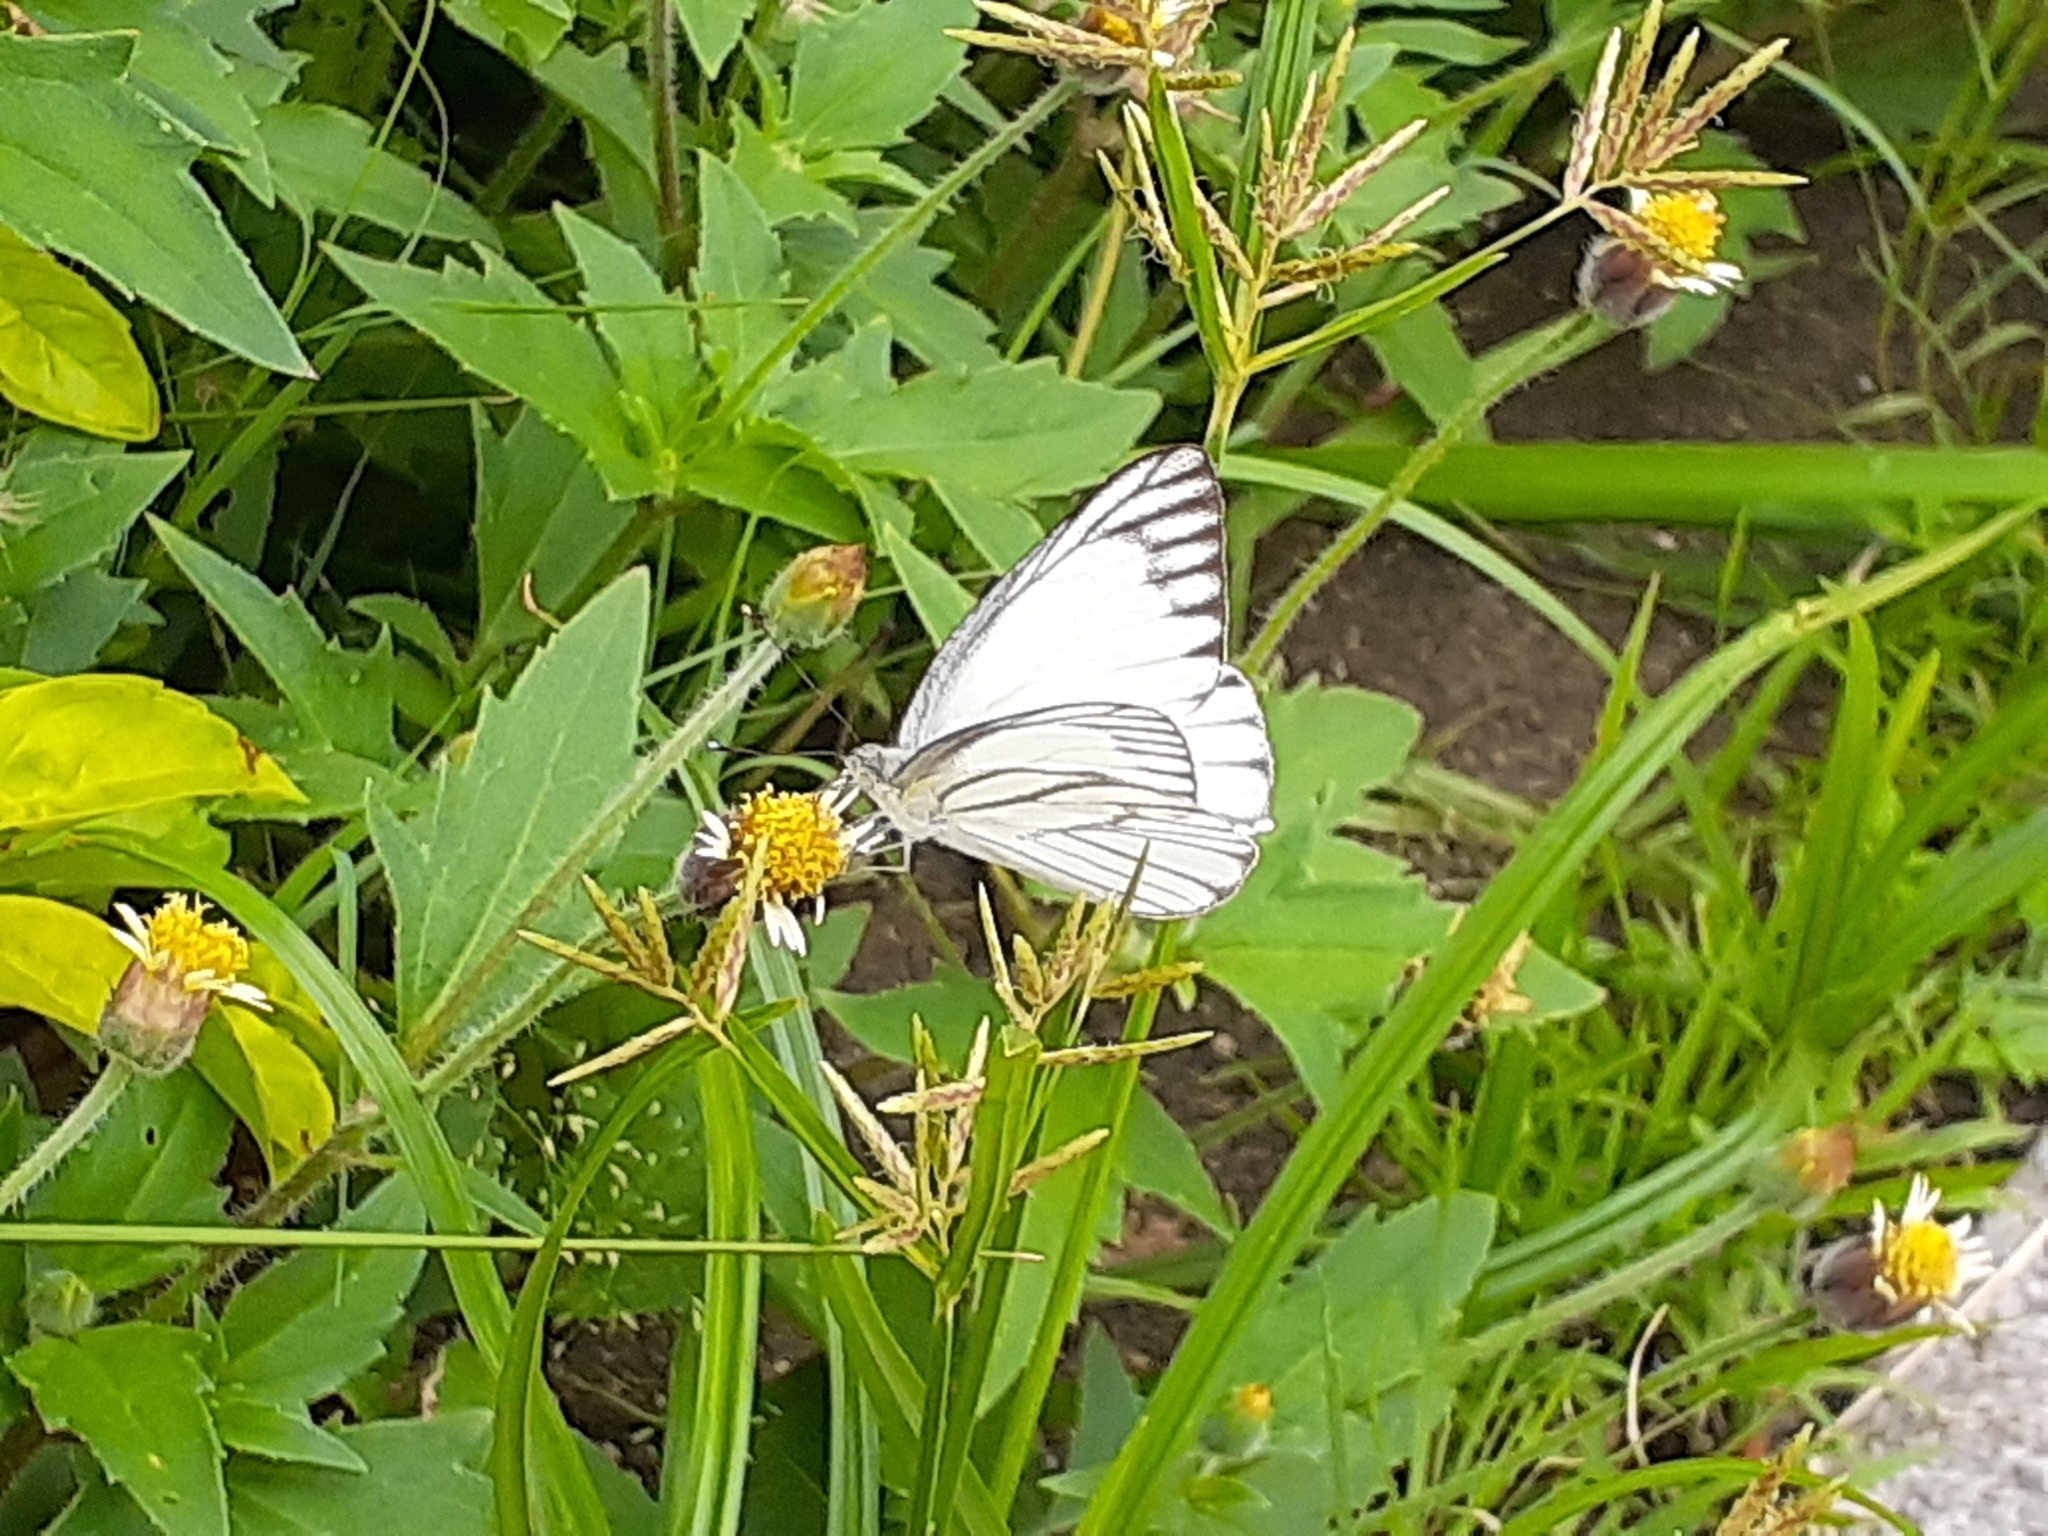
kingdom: Animalia
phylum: Arthropoda
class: Insecta
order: Lepidoptera
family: Pieridae
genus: Appias
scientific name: Appias libythea
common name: Striped albatross
